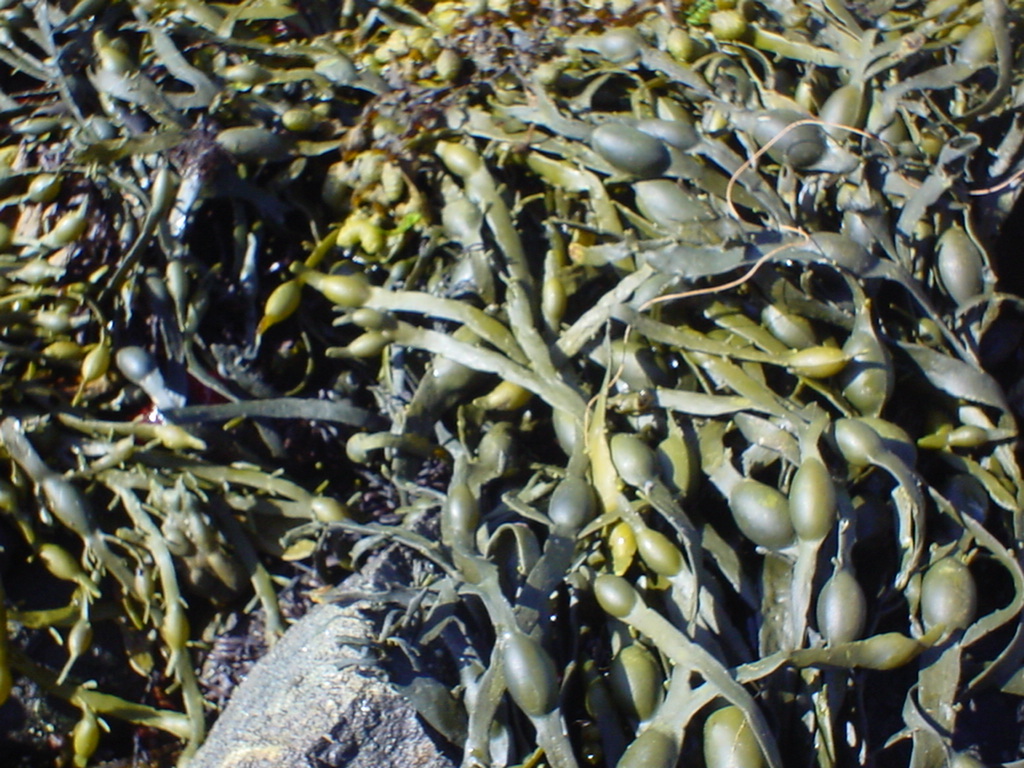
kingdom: Chromista
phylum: Ochrophyta
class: Phaeophyceae
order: Fucales
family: Fucaceae
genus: Ascophyllum
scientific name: Ascophyllum nodosum
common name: Knotted wrack
